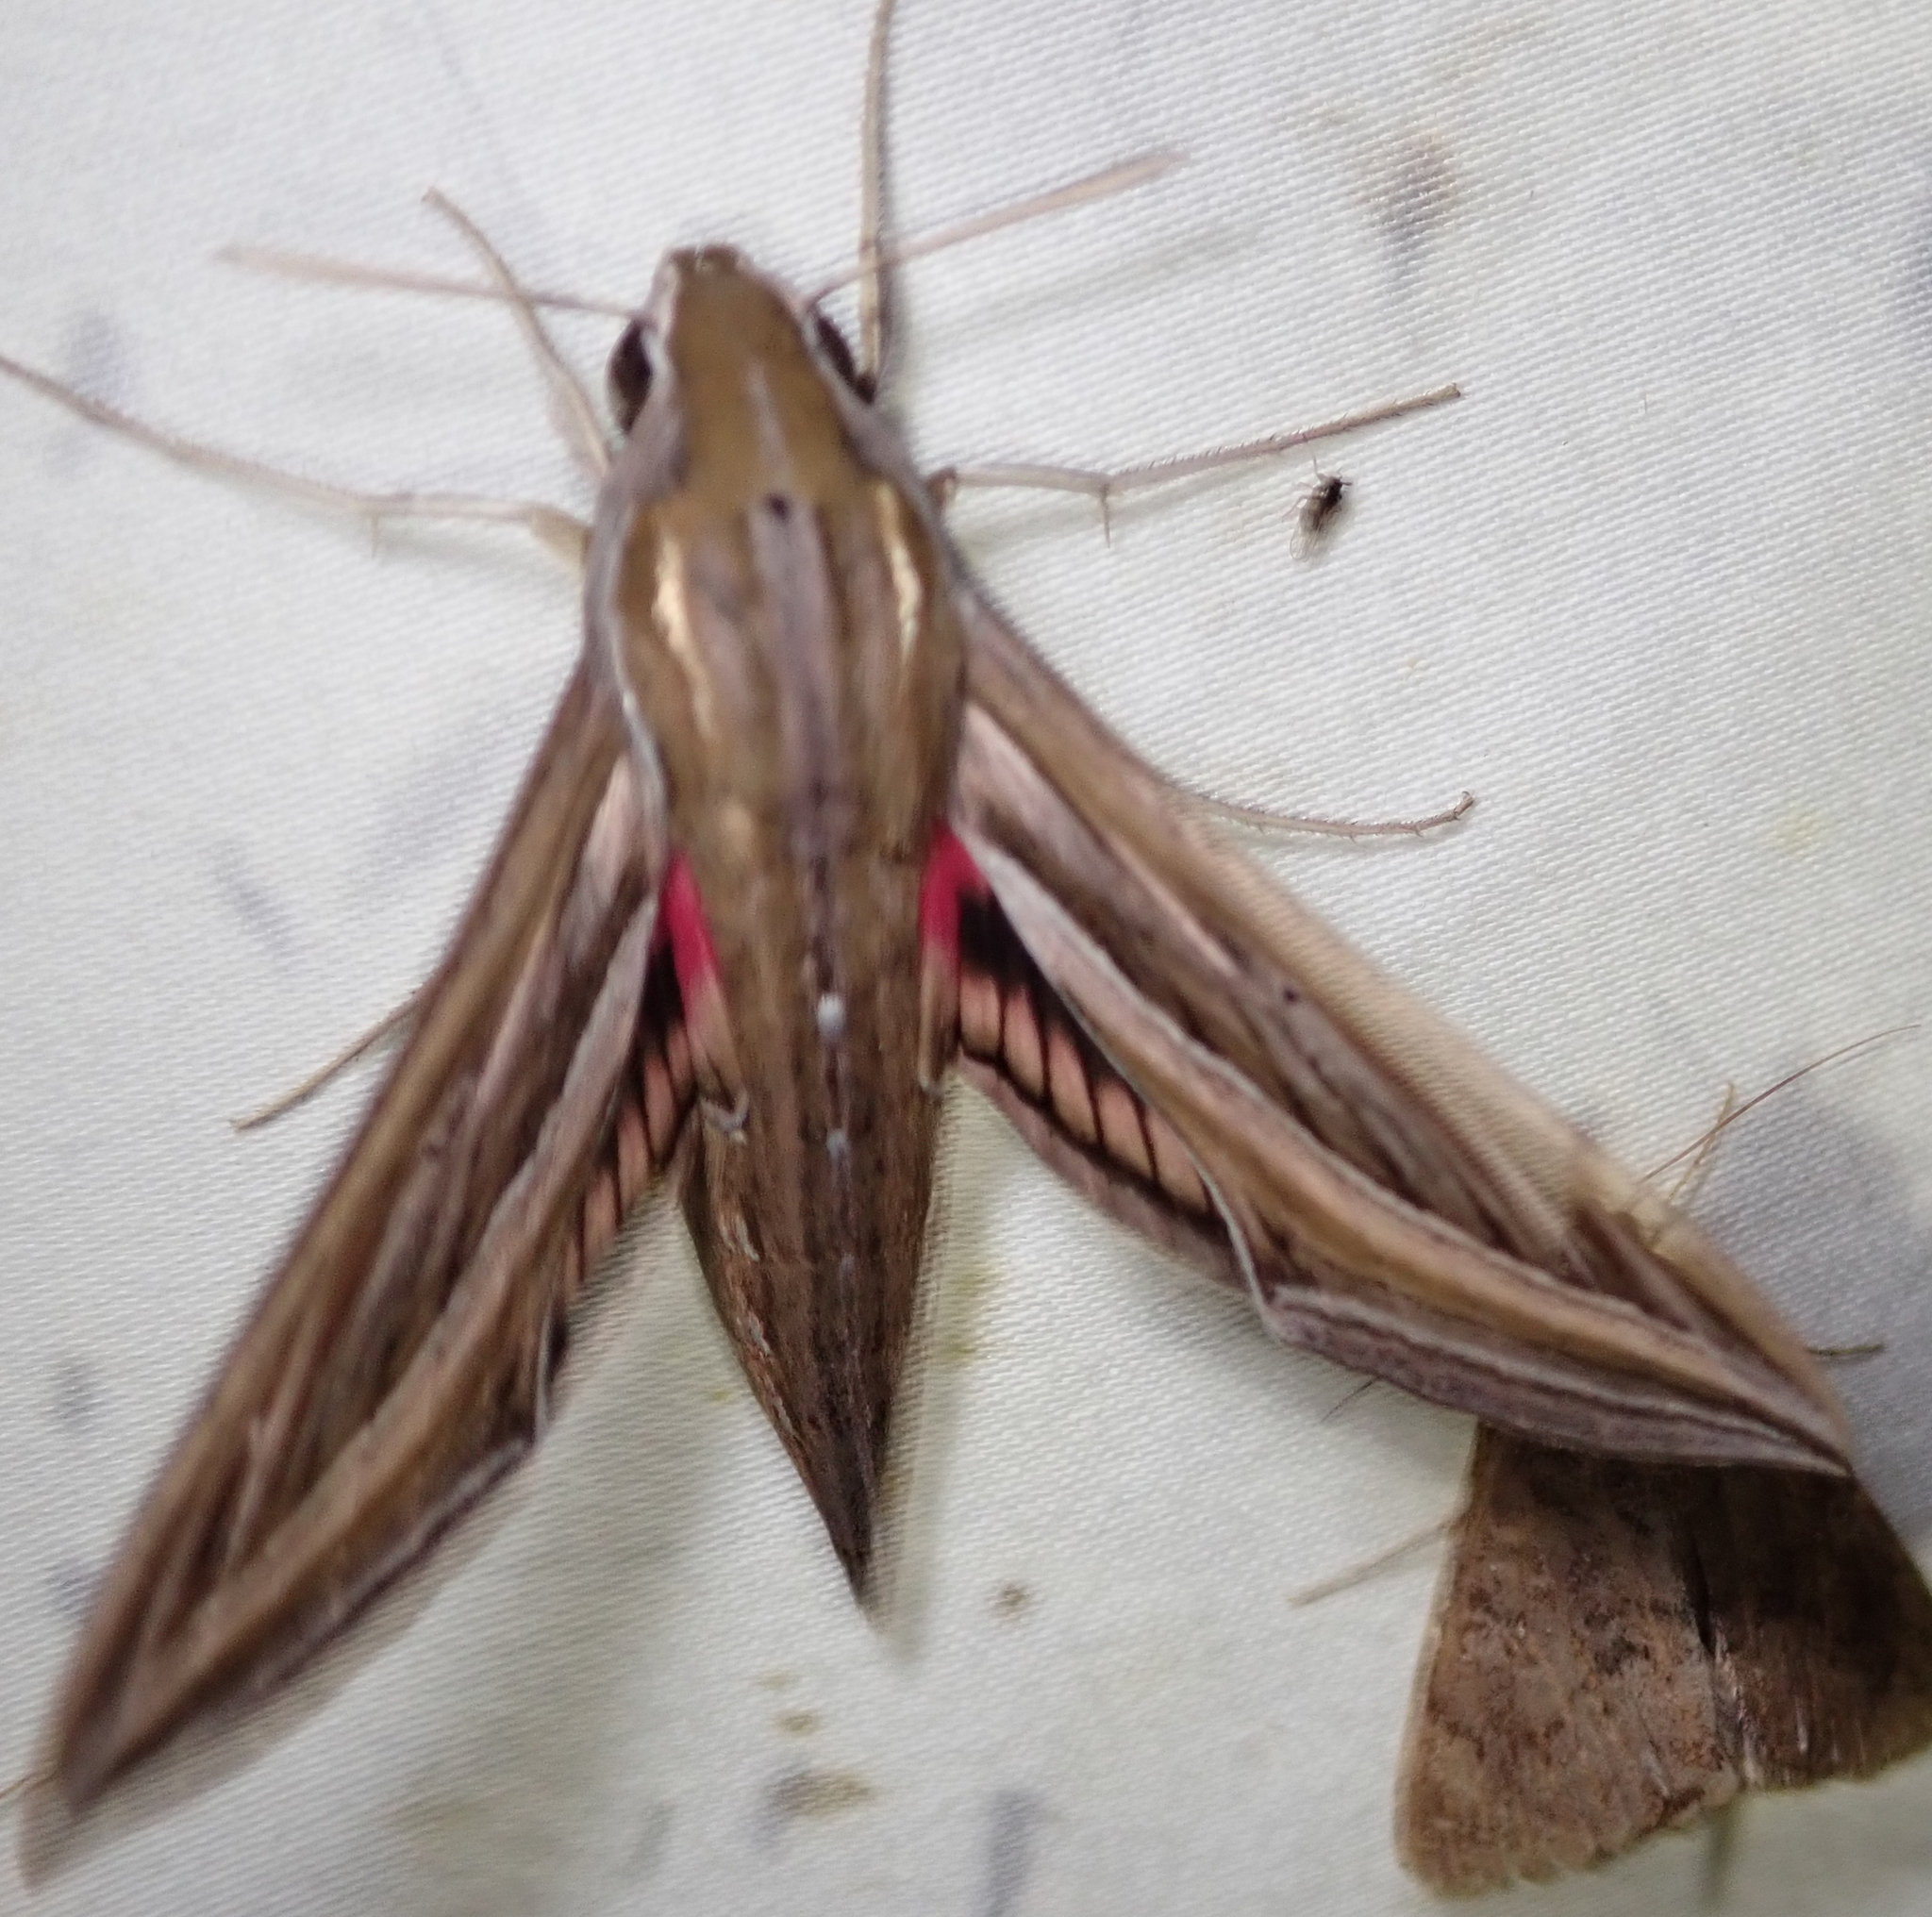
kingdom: Animalia
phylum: Arthropoda
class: Insecta
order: Lepidoptera
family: Sphingidae
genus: Hyles
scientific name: Hyles livornica
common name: Striped hawk-moth
